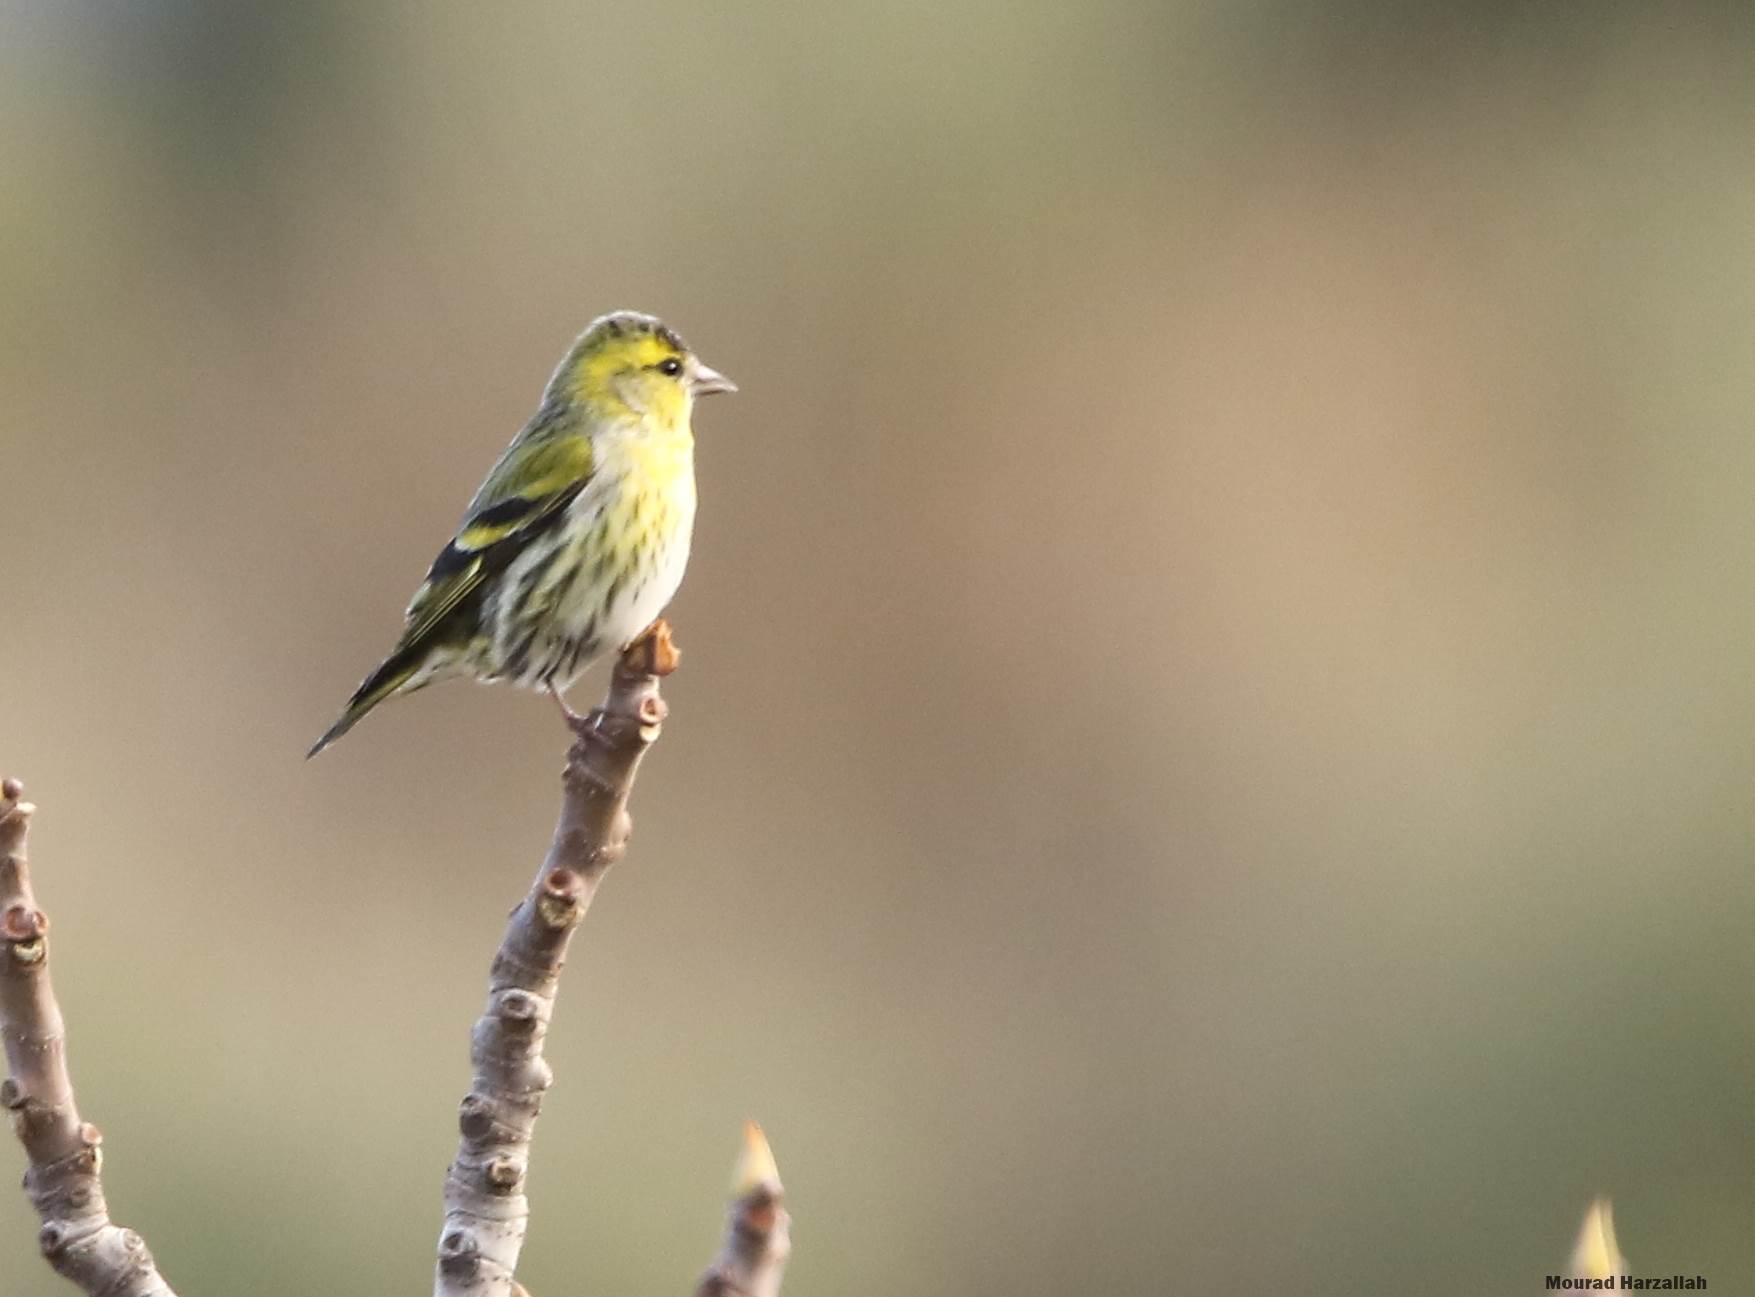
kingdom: Animalia
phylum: Chordata
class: Aves
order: Passeriformes
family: Fringillidae
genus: Spinus
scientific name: Spinus spinus
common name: Eurasian siskin
